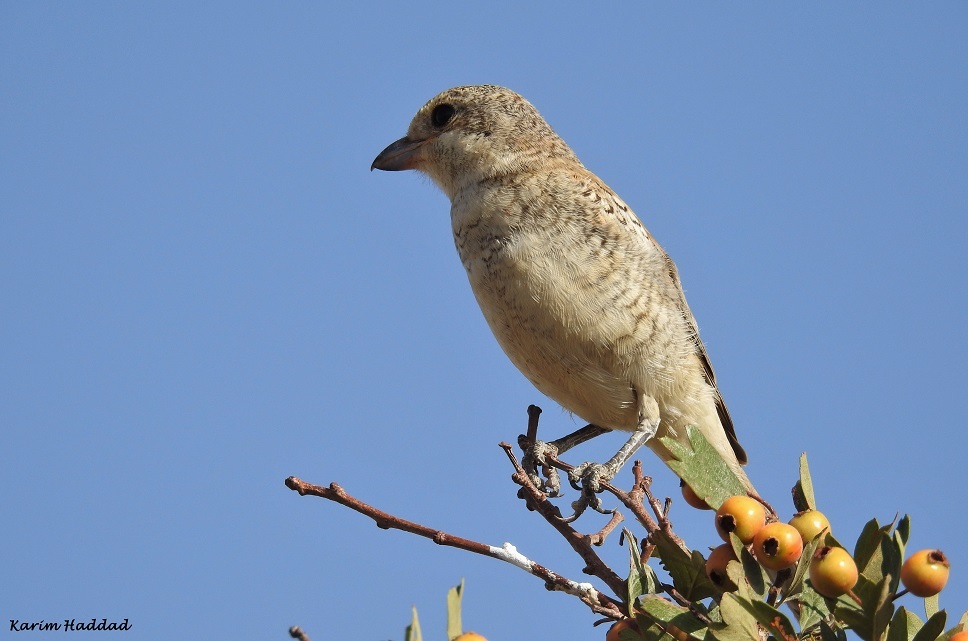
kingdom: Animalia
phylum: Chordata
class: Aves
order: Passeriformes
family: Laniidae
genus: Lanius
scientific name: Lanius senator
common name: Woodchat shrike
